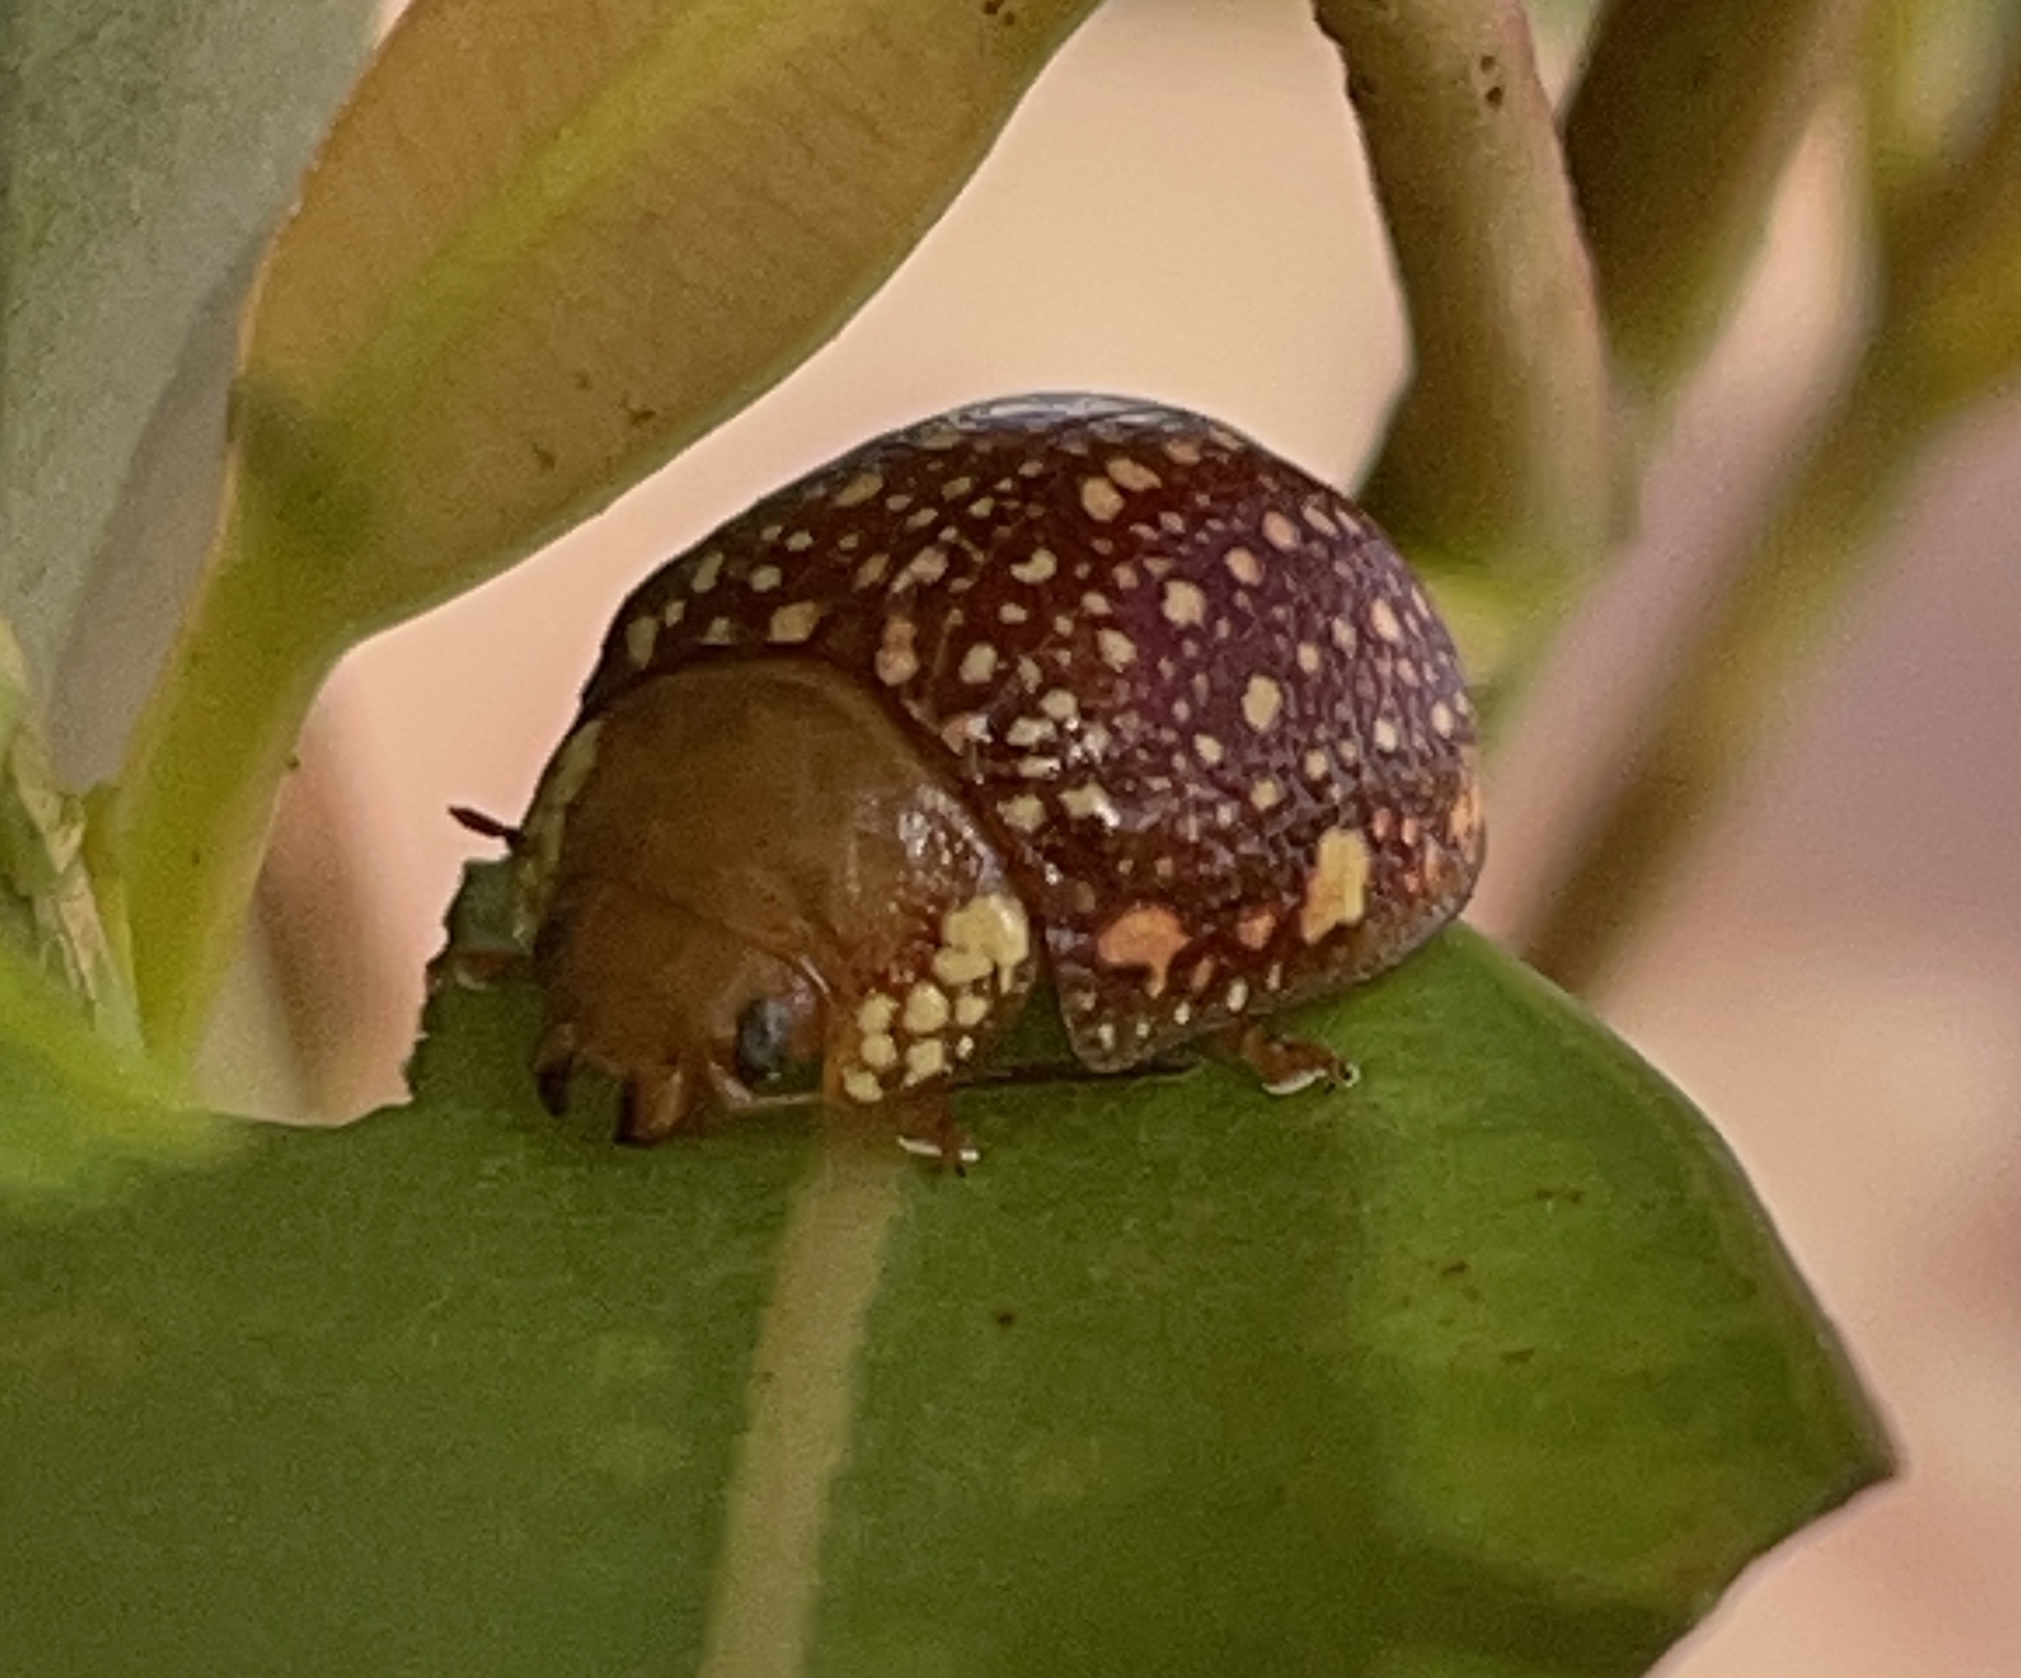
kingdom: Animalia
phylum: Arthropoda
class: Insecta
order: Coleoptera
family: Chrysomelidae
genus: Paropsis
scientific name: Paropsis
